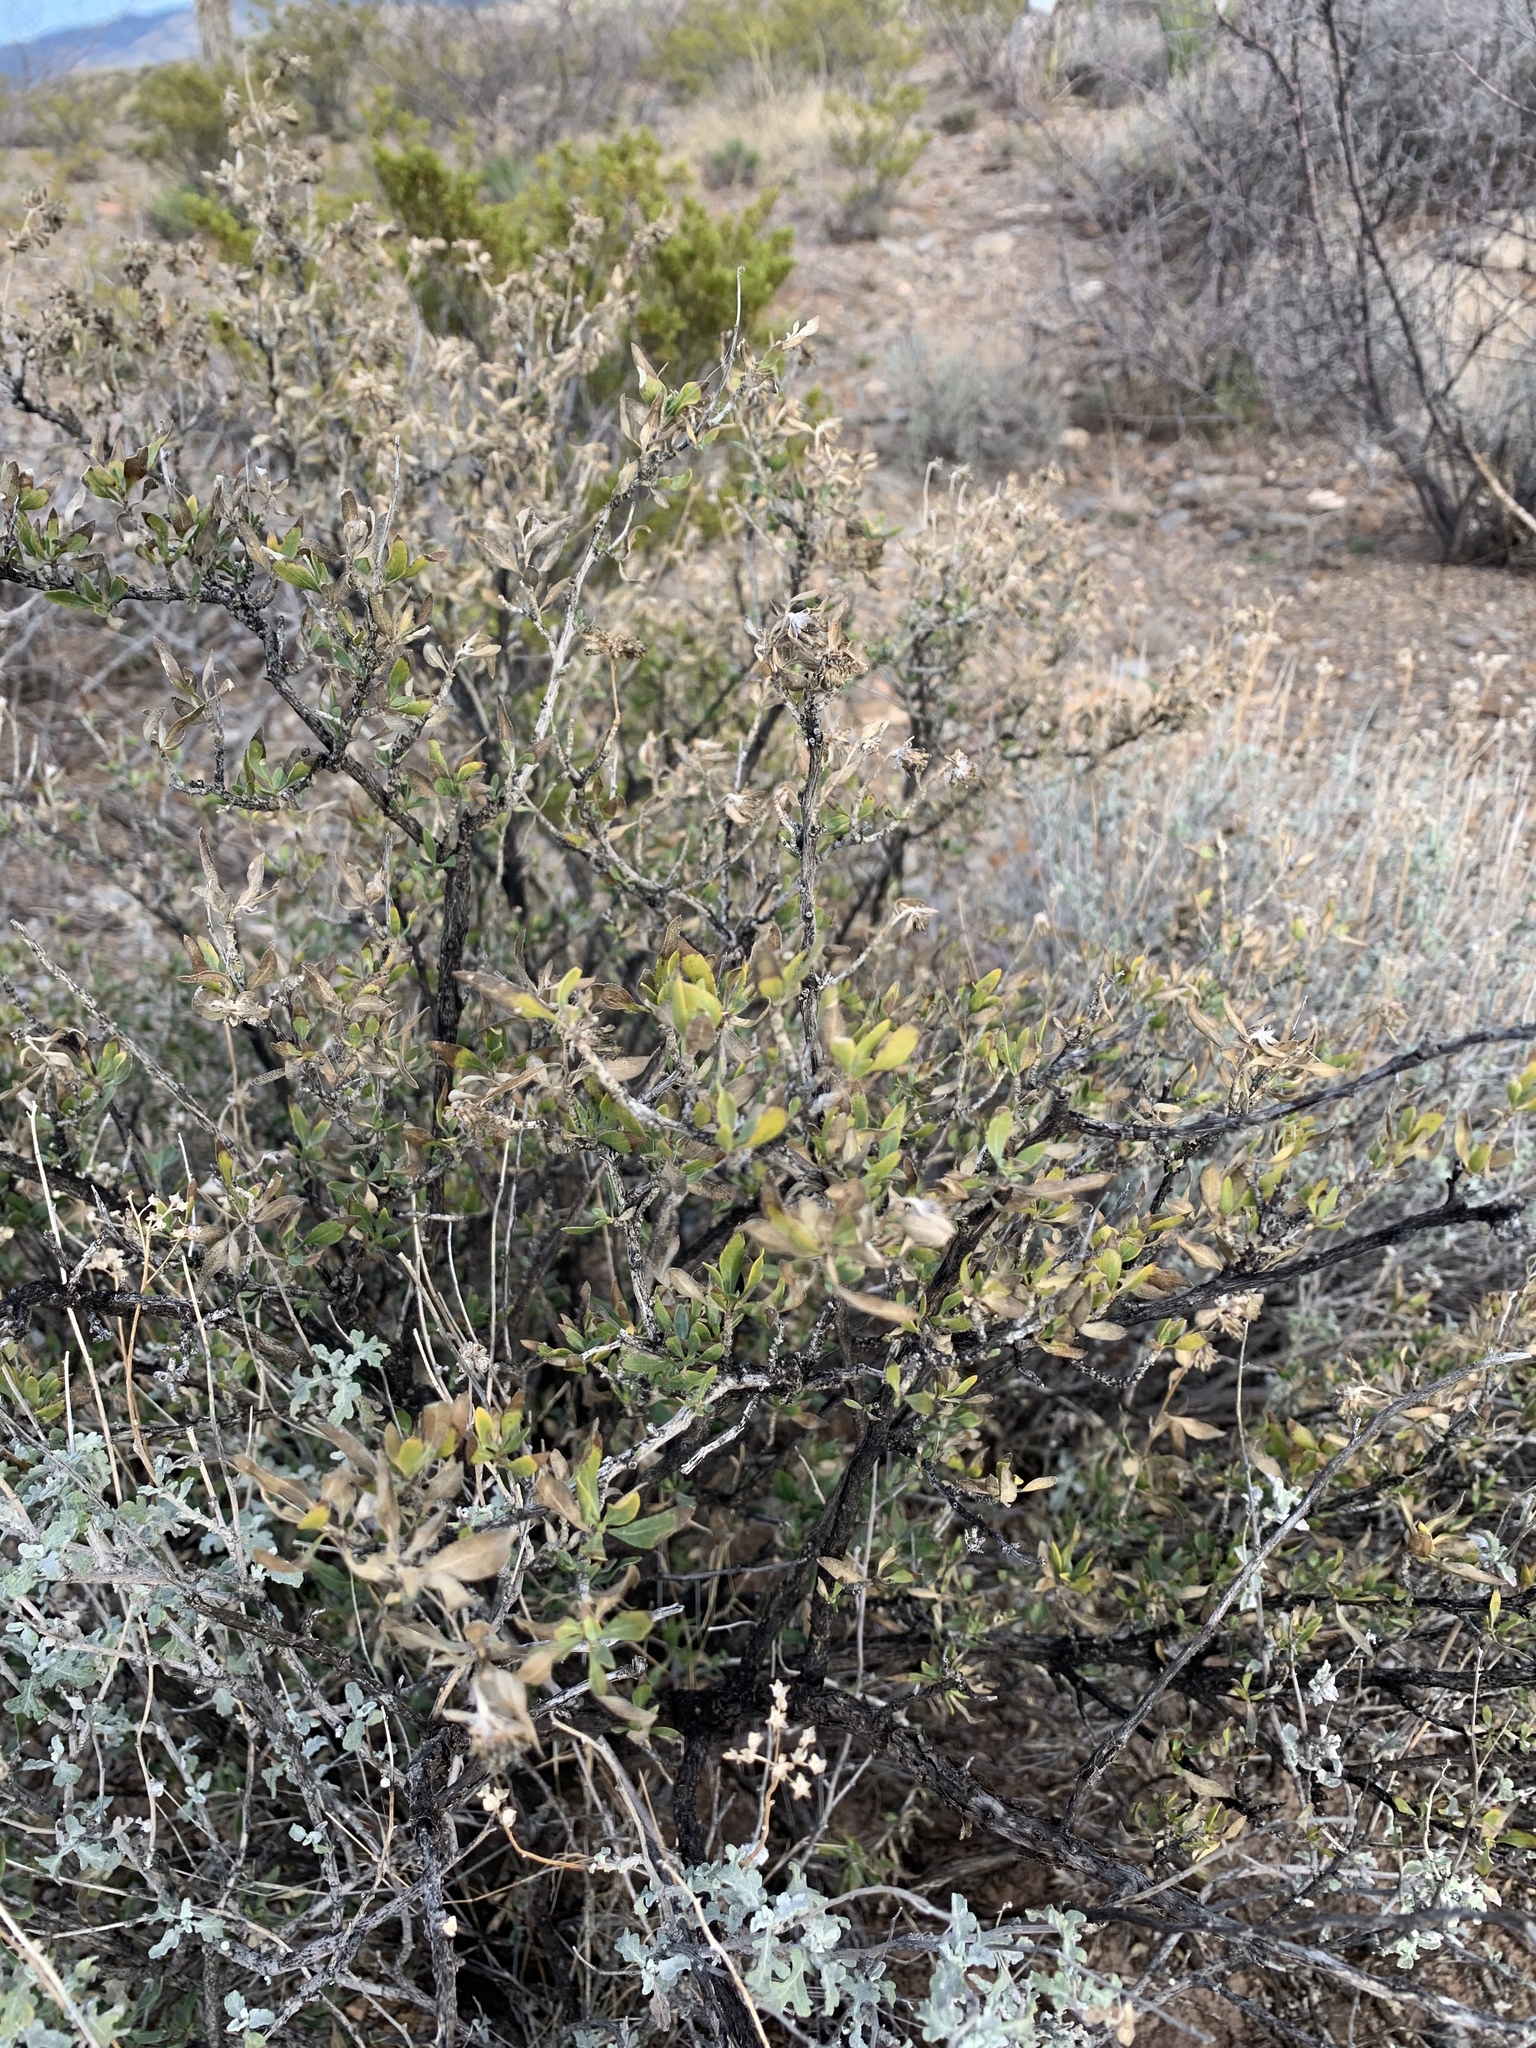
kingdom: Plantae
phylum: Tracheophyta
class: Magnoliopsida
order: Asterales
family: Asteraceae
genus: Flourensia
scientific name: Flourensia cernua
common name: Varnishbush
